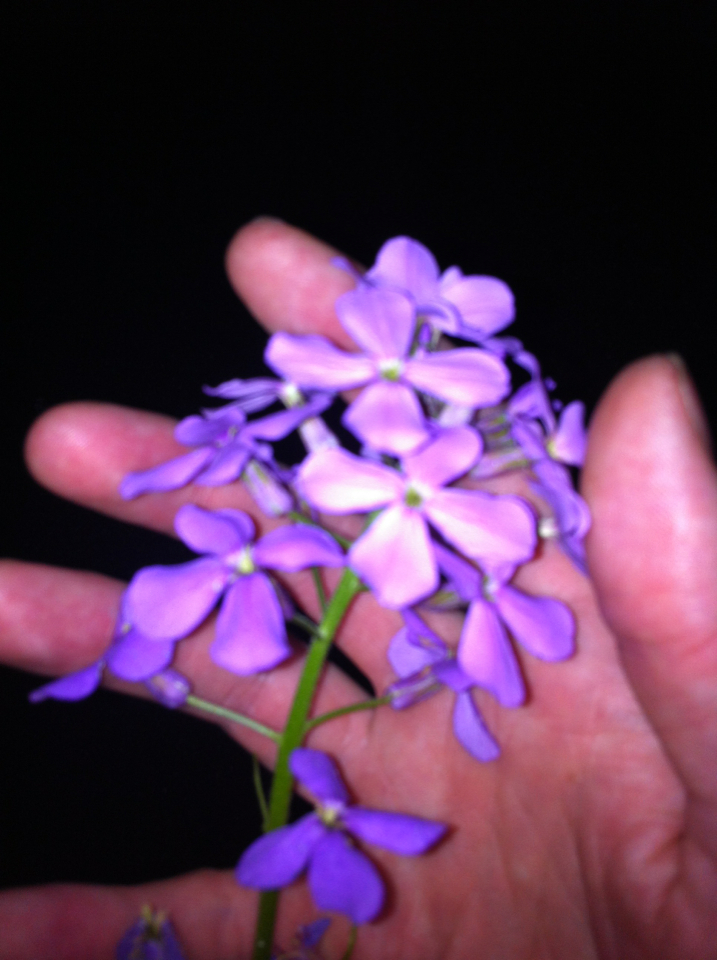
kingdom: Plantae
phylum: Tracheophyta
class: Magnoliopsida
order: Brassicales
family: Brassicaceae
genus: Hesperis
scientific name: Hesperis matronalis
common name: Dame's-violet
